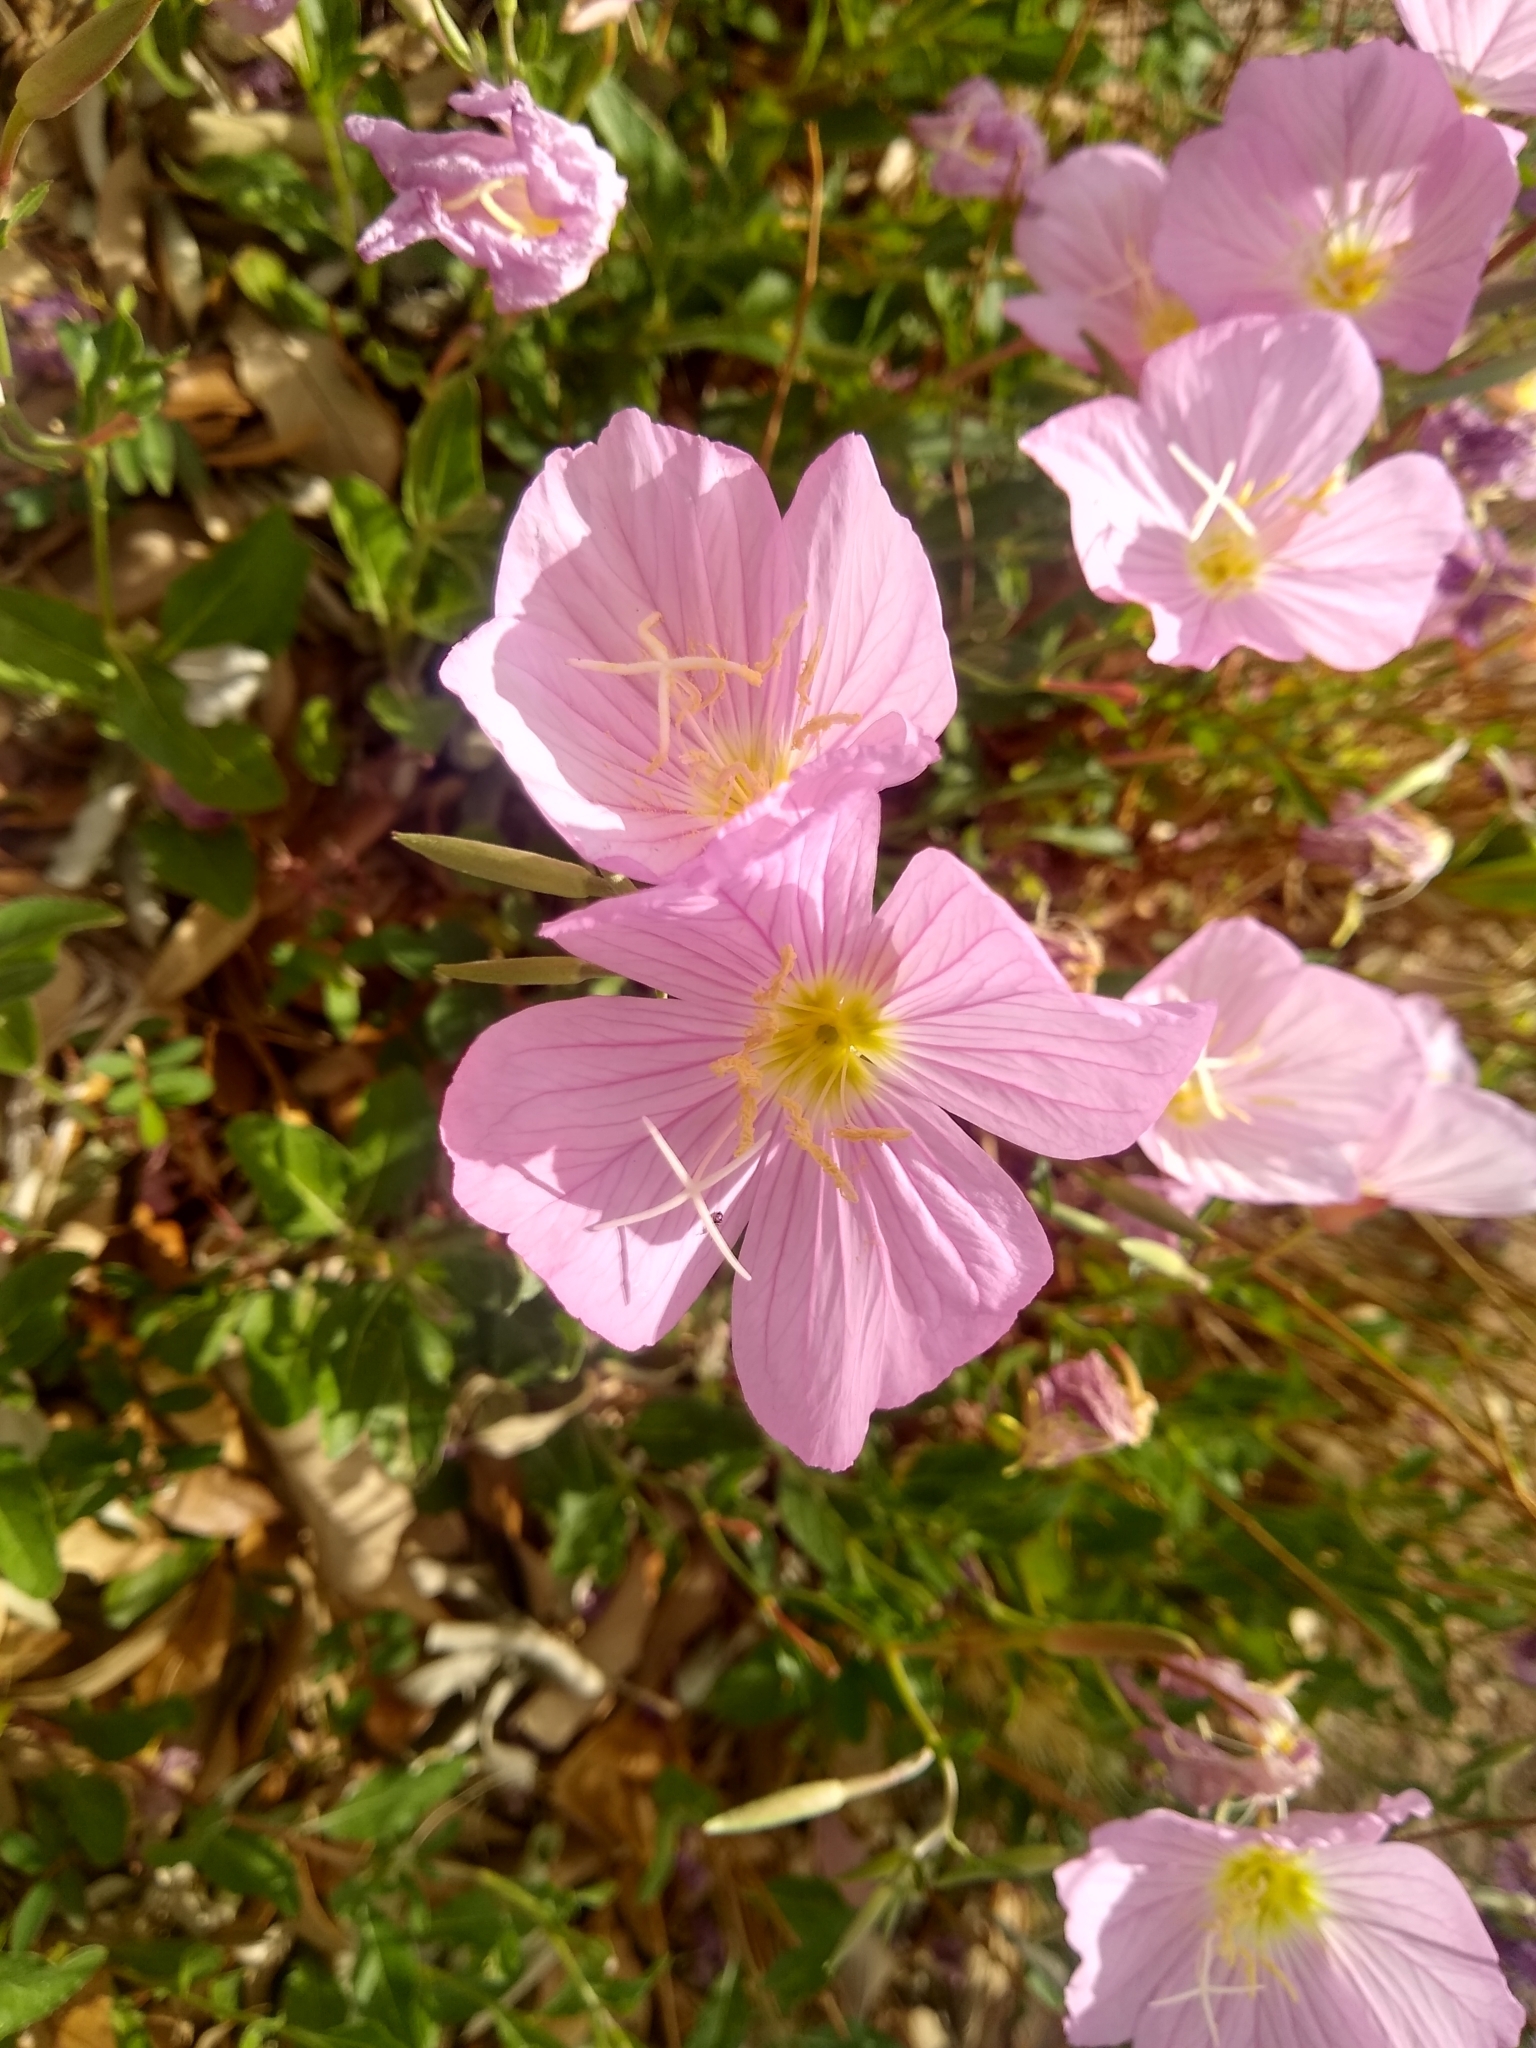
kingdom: Plantae
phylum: Tracheophyta
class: Magnoliopsida
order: Myrtales
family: Onagraceae
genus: Oenothera
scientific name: Oenothera speciosa
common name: White evening-primrose
